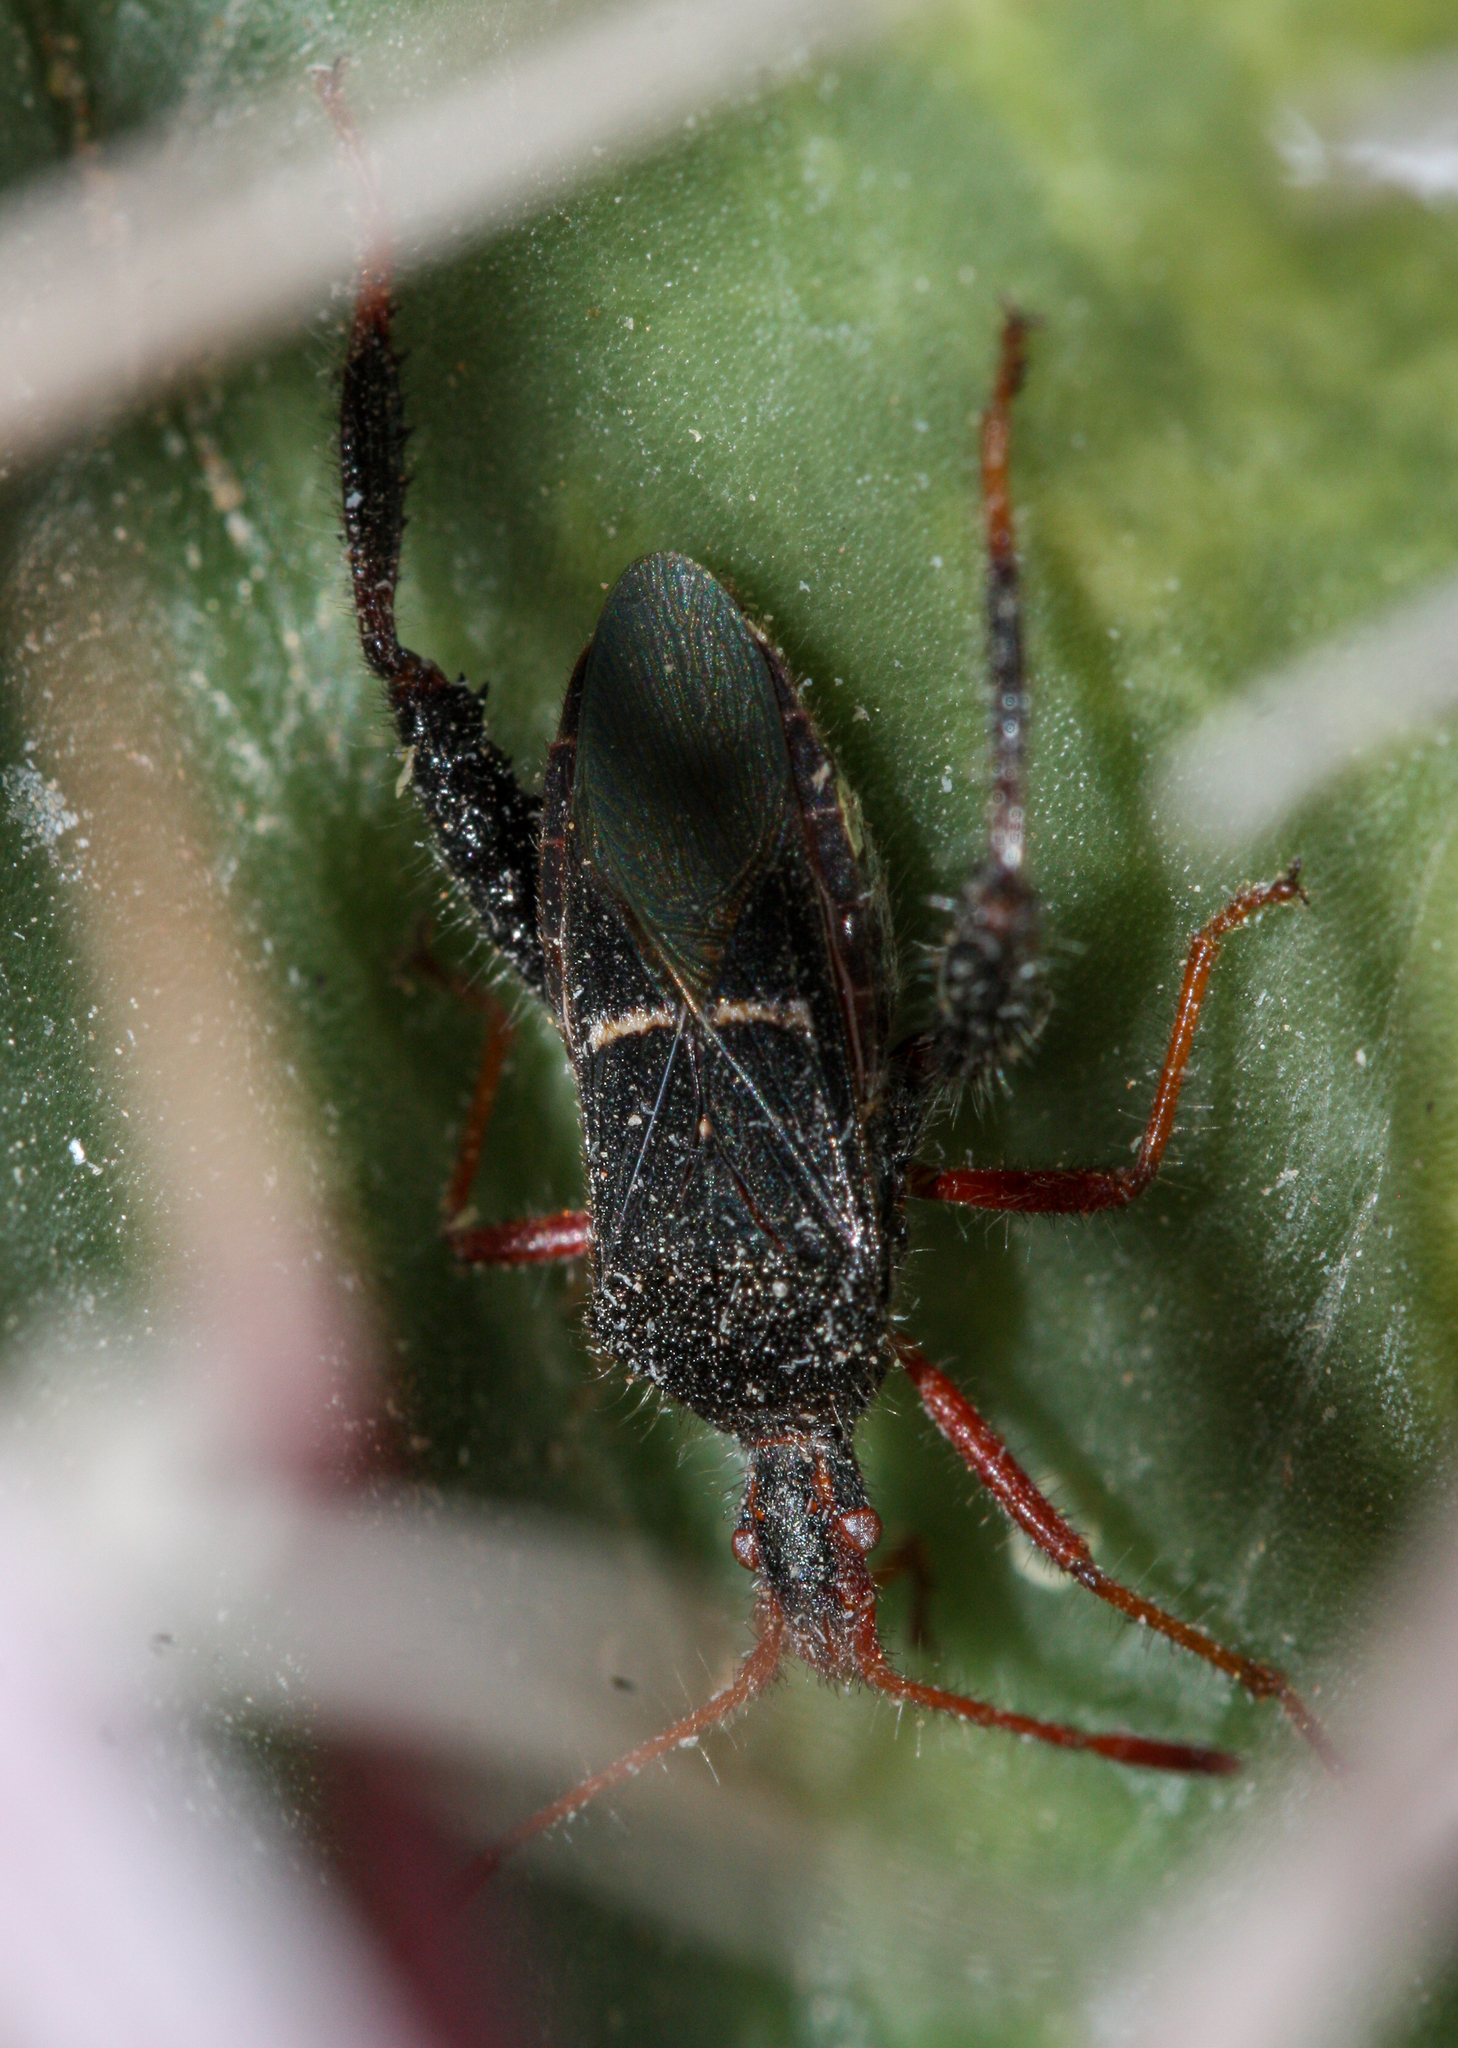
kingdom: Animalia
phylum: Arthropoda
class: Insecta
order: Hemiptera
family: Coreidae
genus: Narnia
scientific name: Narnia wilsoni
